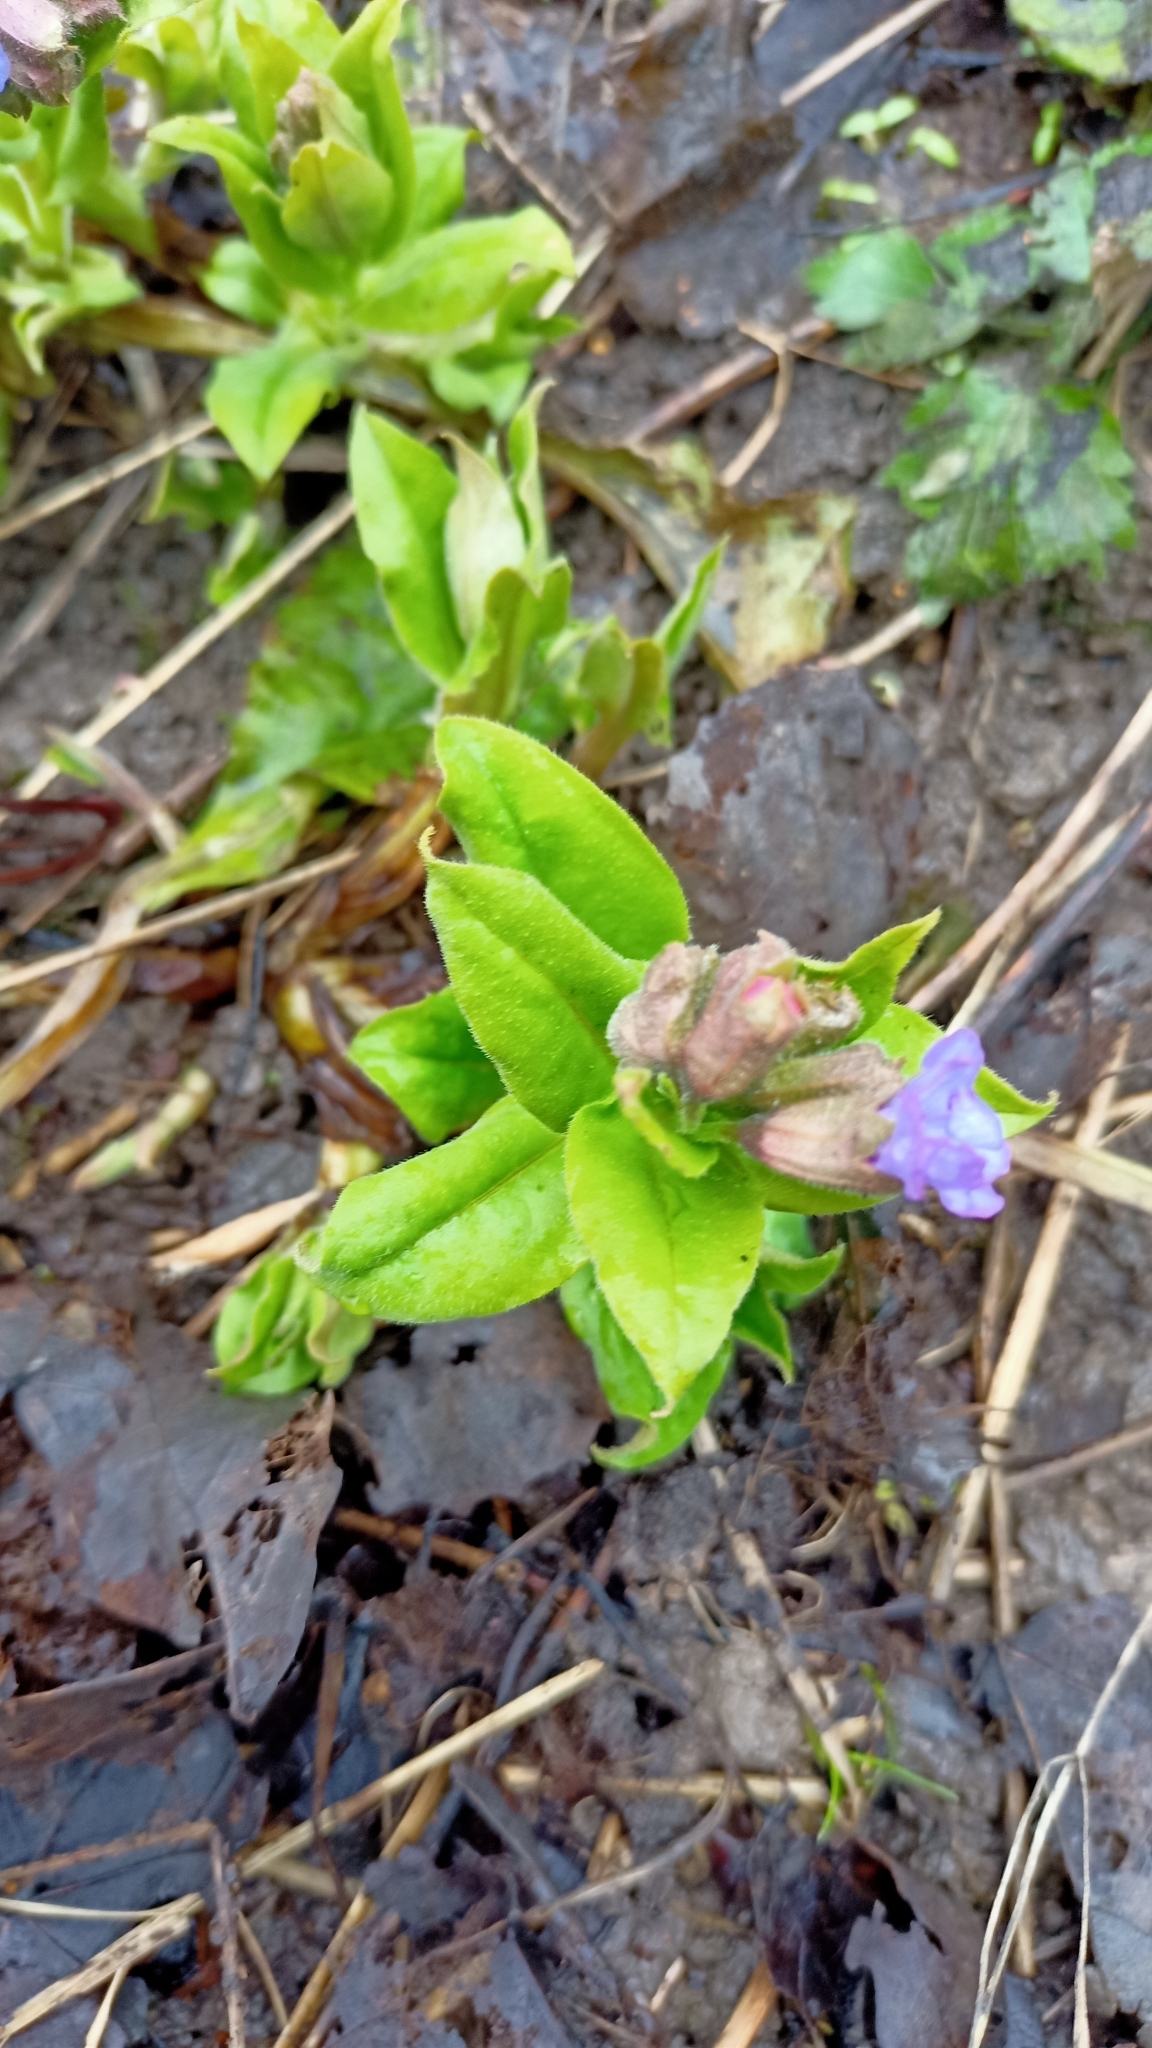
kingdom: Plantae
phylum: Tracheophyta
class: Magnoliopsida
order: Boraginales
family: Boraginaceae
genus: Pulmonaria
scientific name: Pulmonaria obscura
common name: Suffolk lungwort
